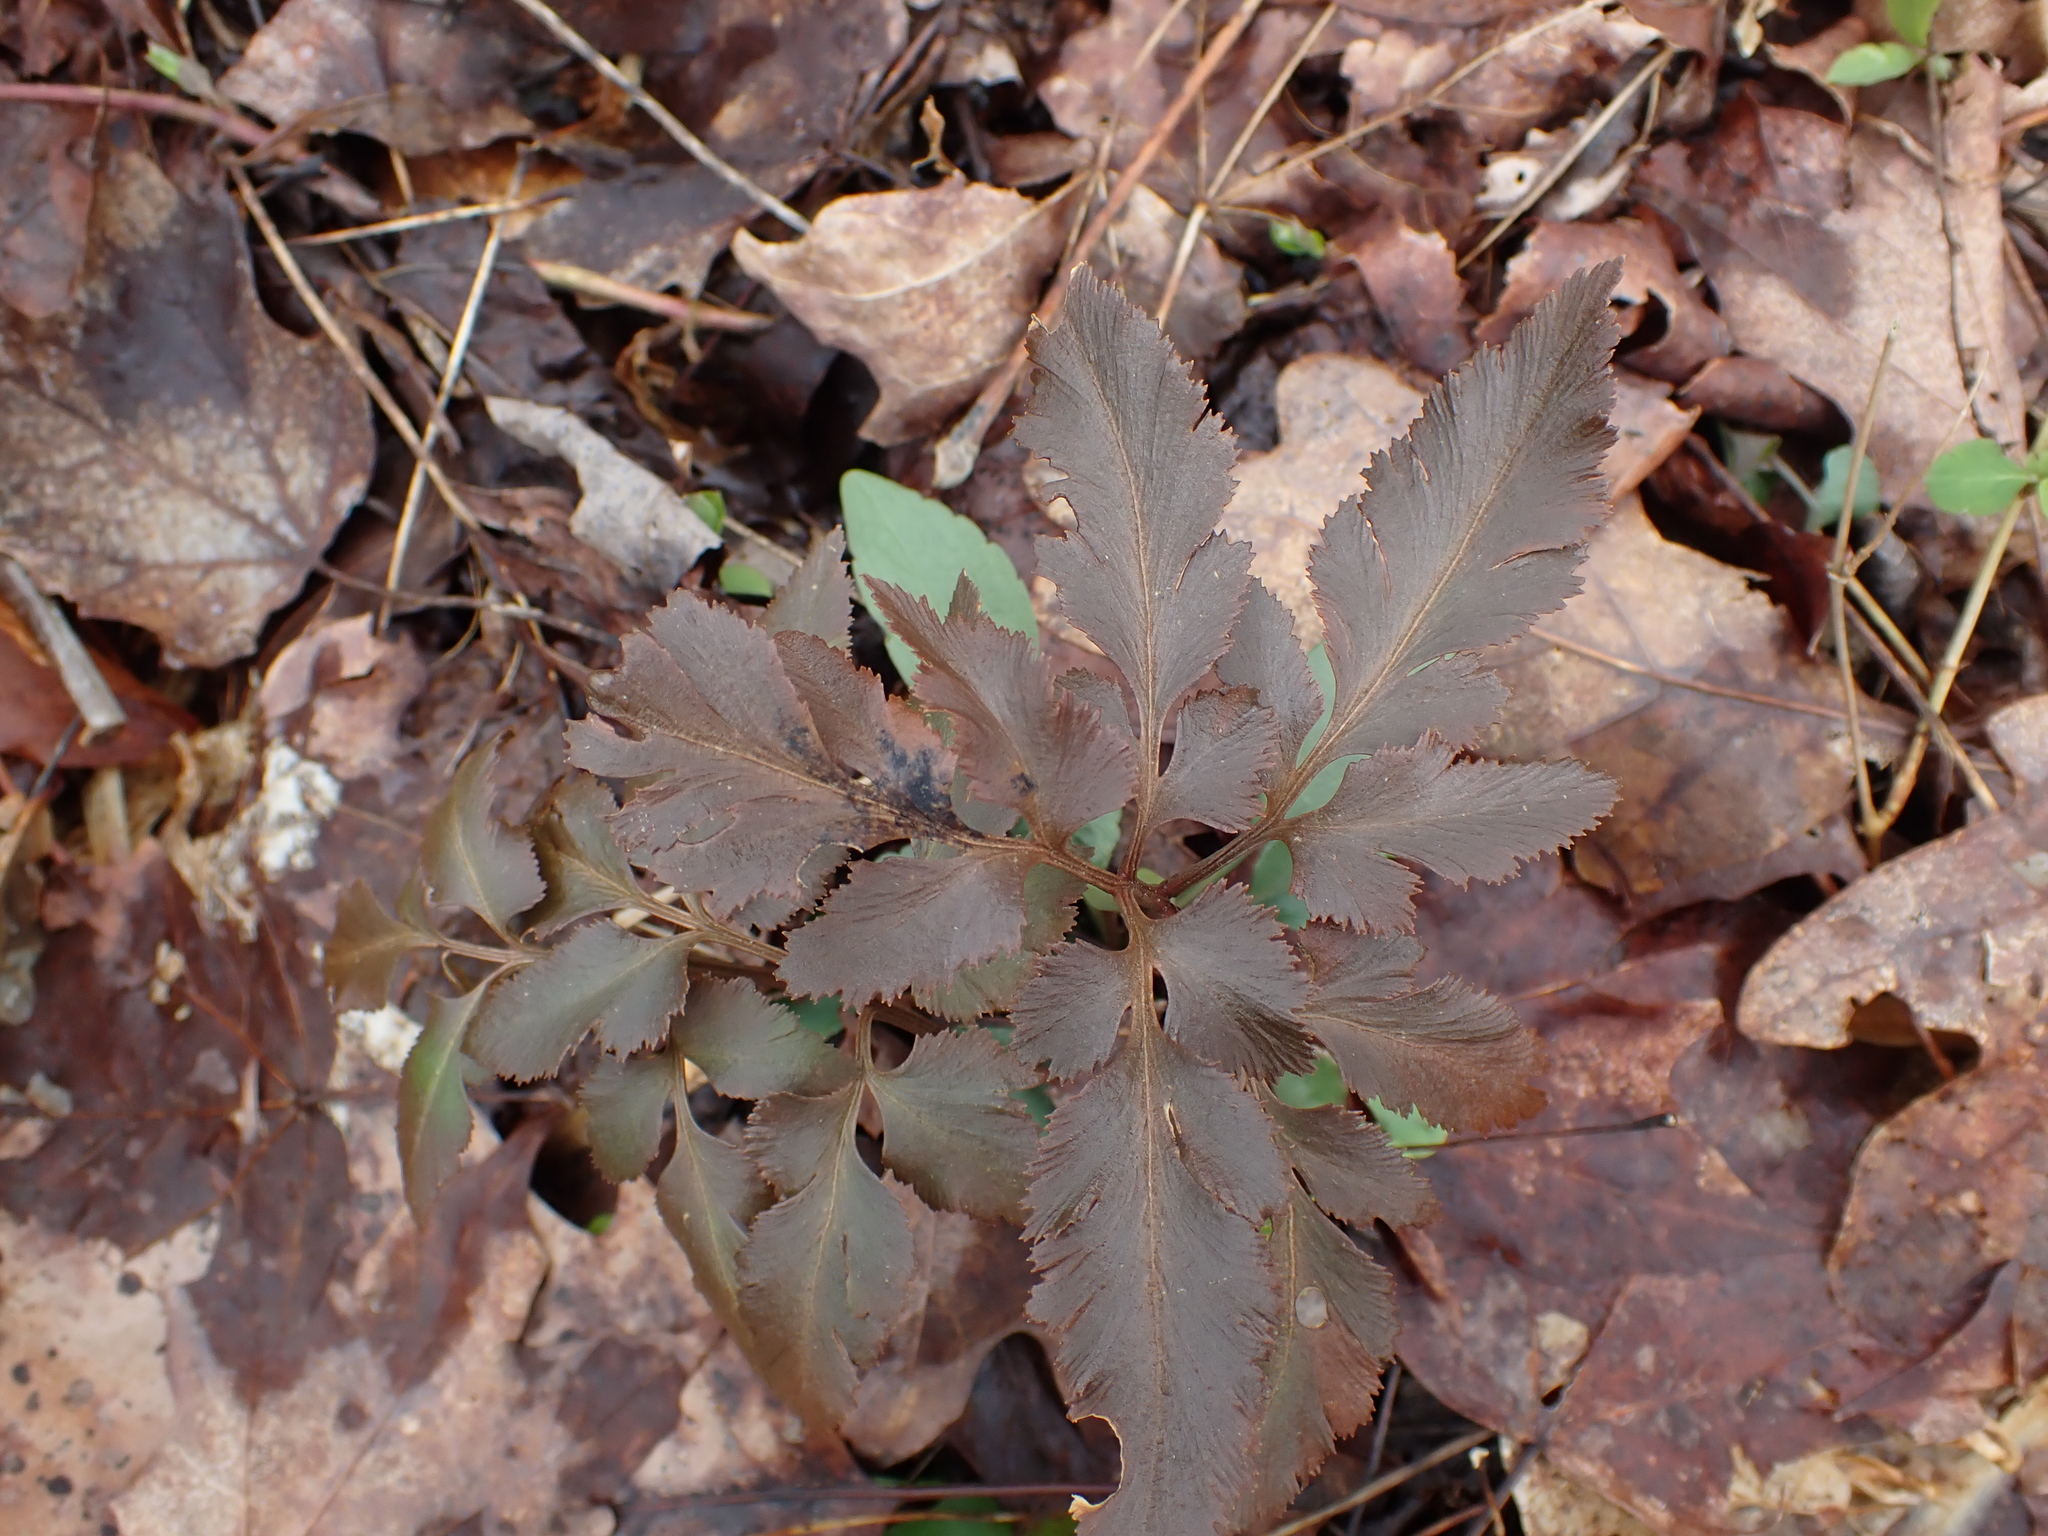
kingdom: Plantae
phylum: Tracheophyta
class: Polypodiopsida
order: Ophioglossales
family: Ophioglossaceae
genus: Sceptridium
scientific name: Sceptridium dissectum
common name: Cut-leaved grapefern
